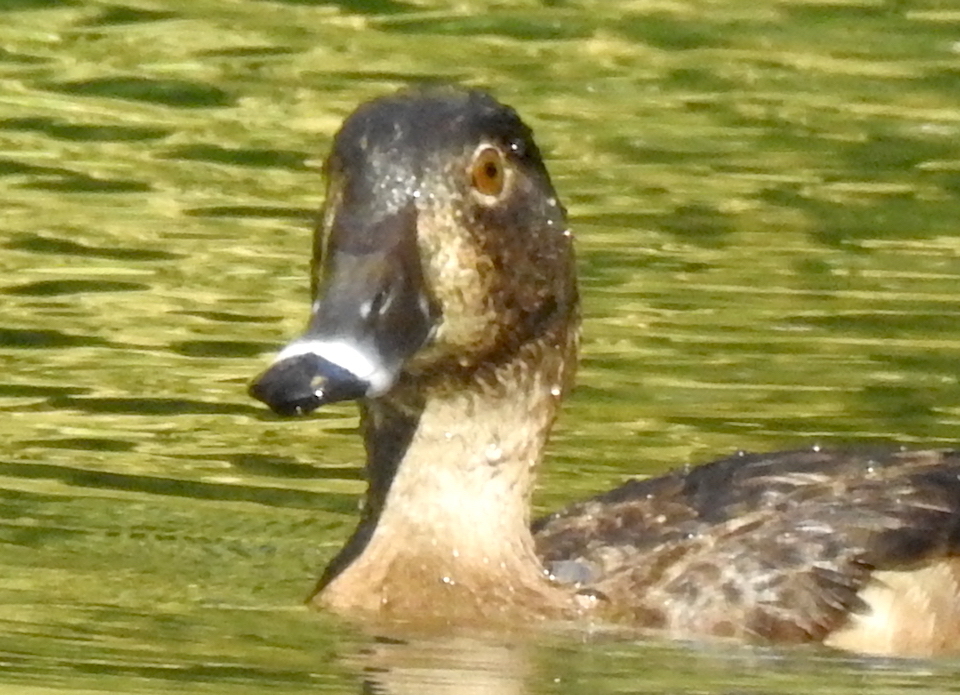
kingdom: Animalia
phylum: Chordata
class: Aves
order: Anseriformes
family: Anatidae
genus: Aythya
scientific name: Aythya collaris
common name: Ring-necked duck
